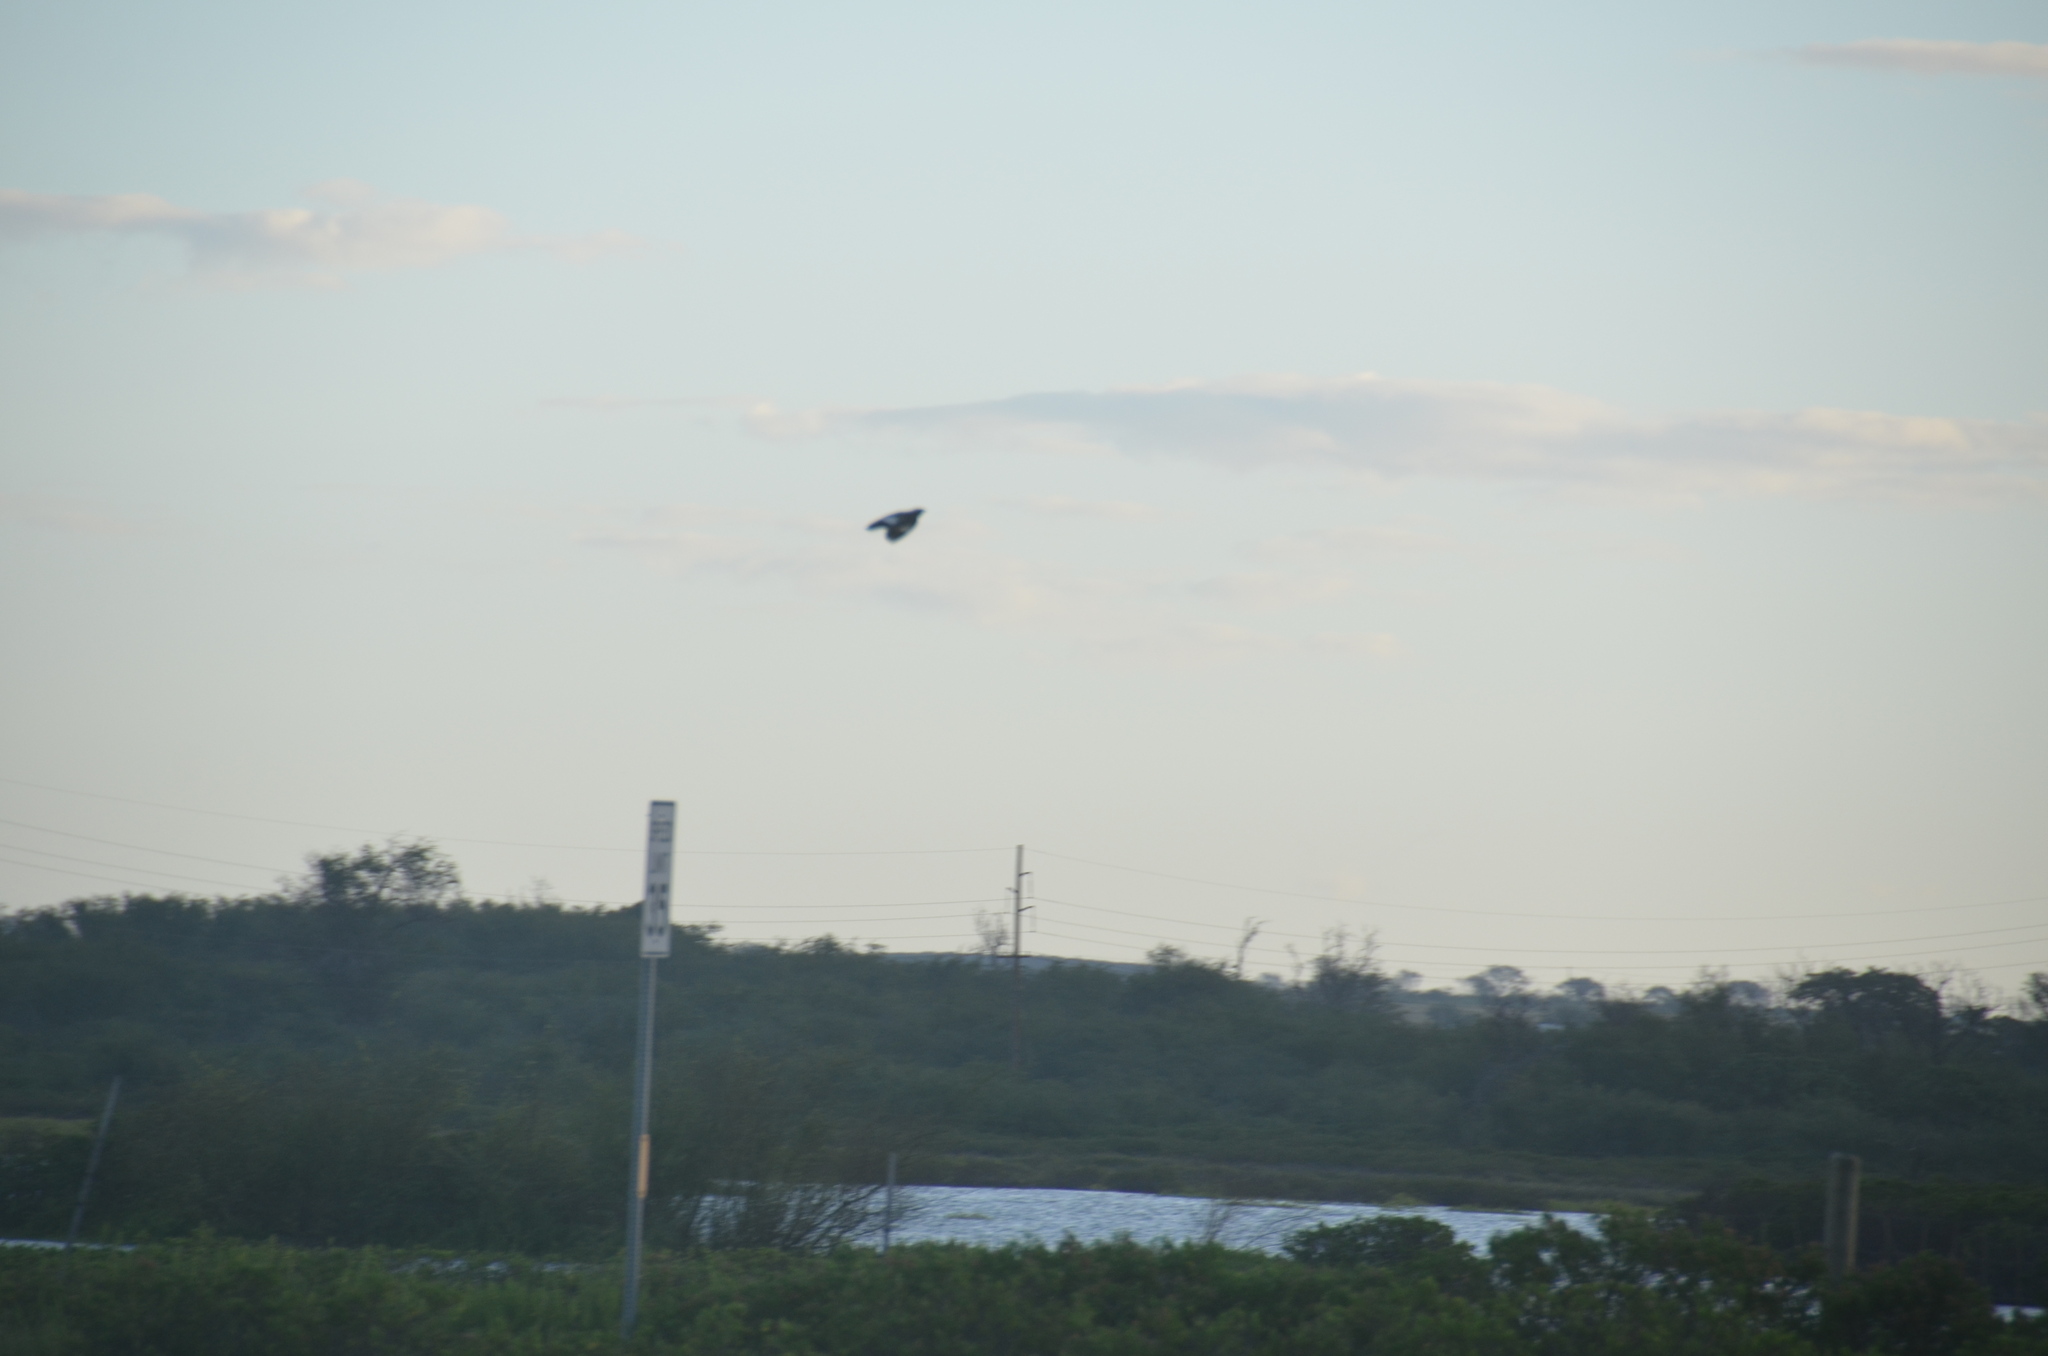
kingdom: Animalia
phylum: Chordata
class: Aves
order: Passeriformes
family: Sturnidae
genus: Acridotheres
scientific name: Acridotheres tristis
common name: Common myna
